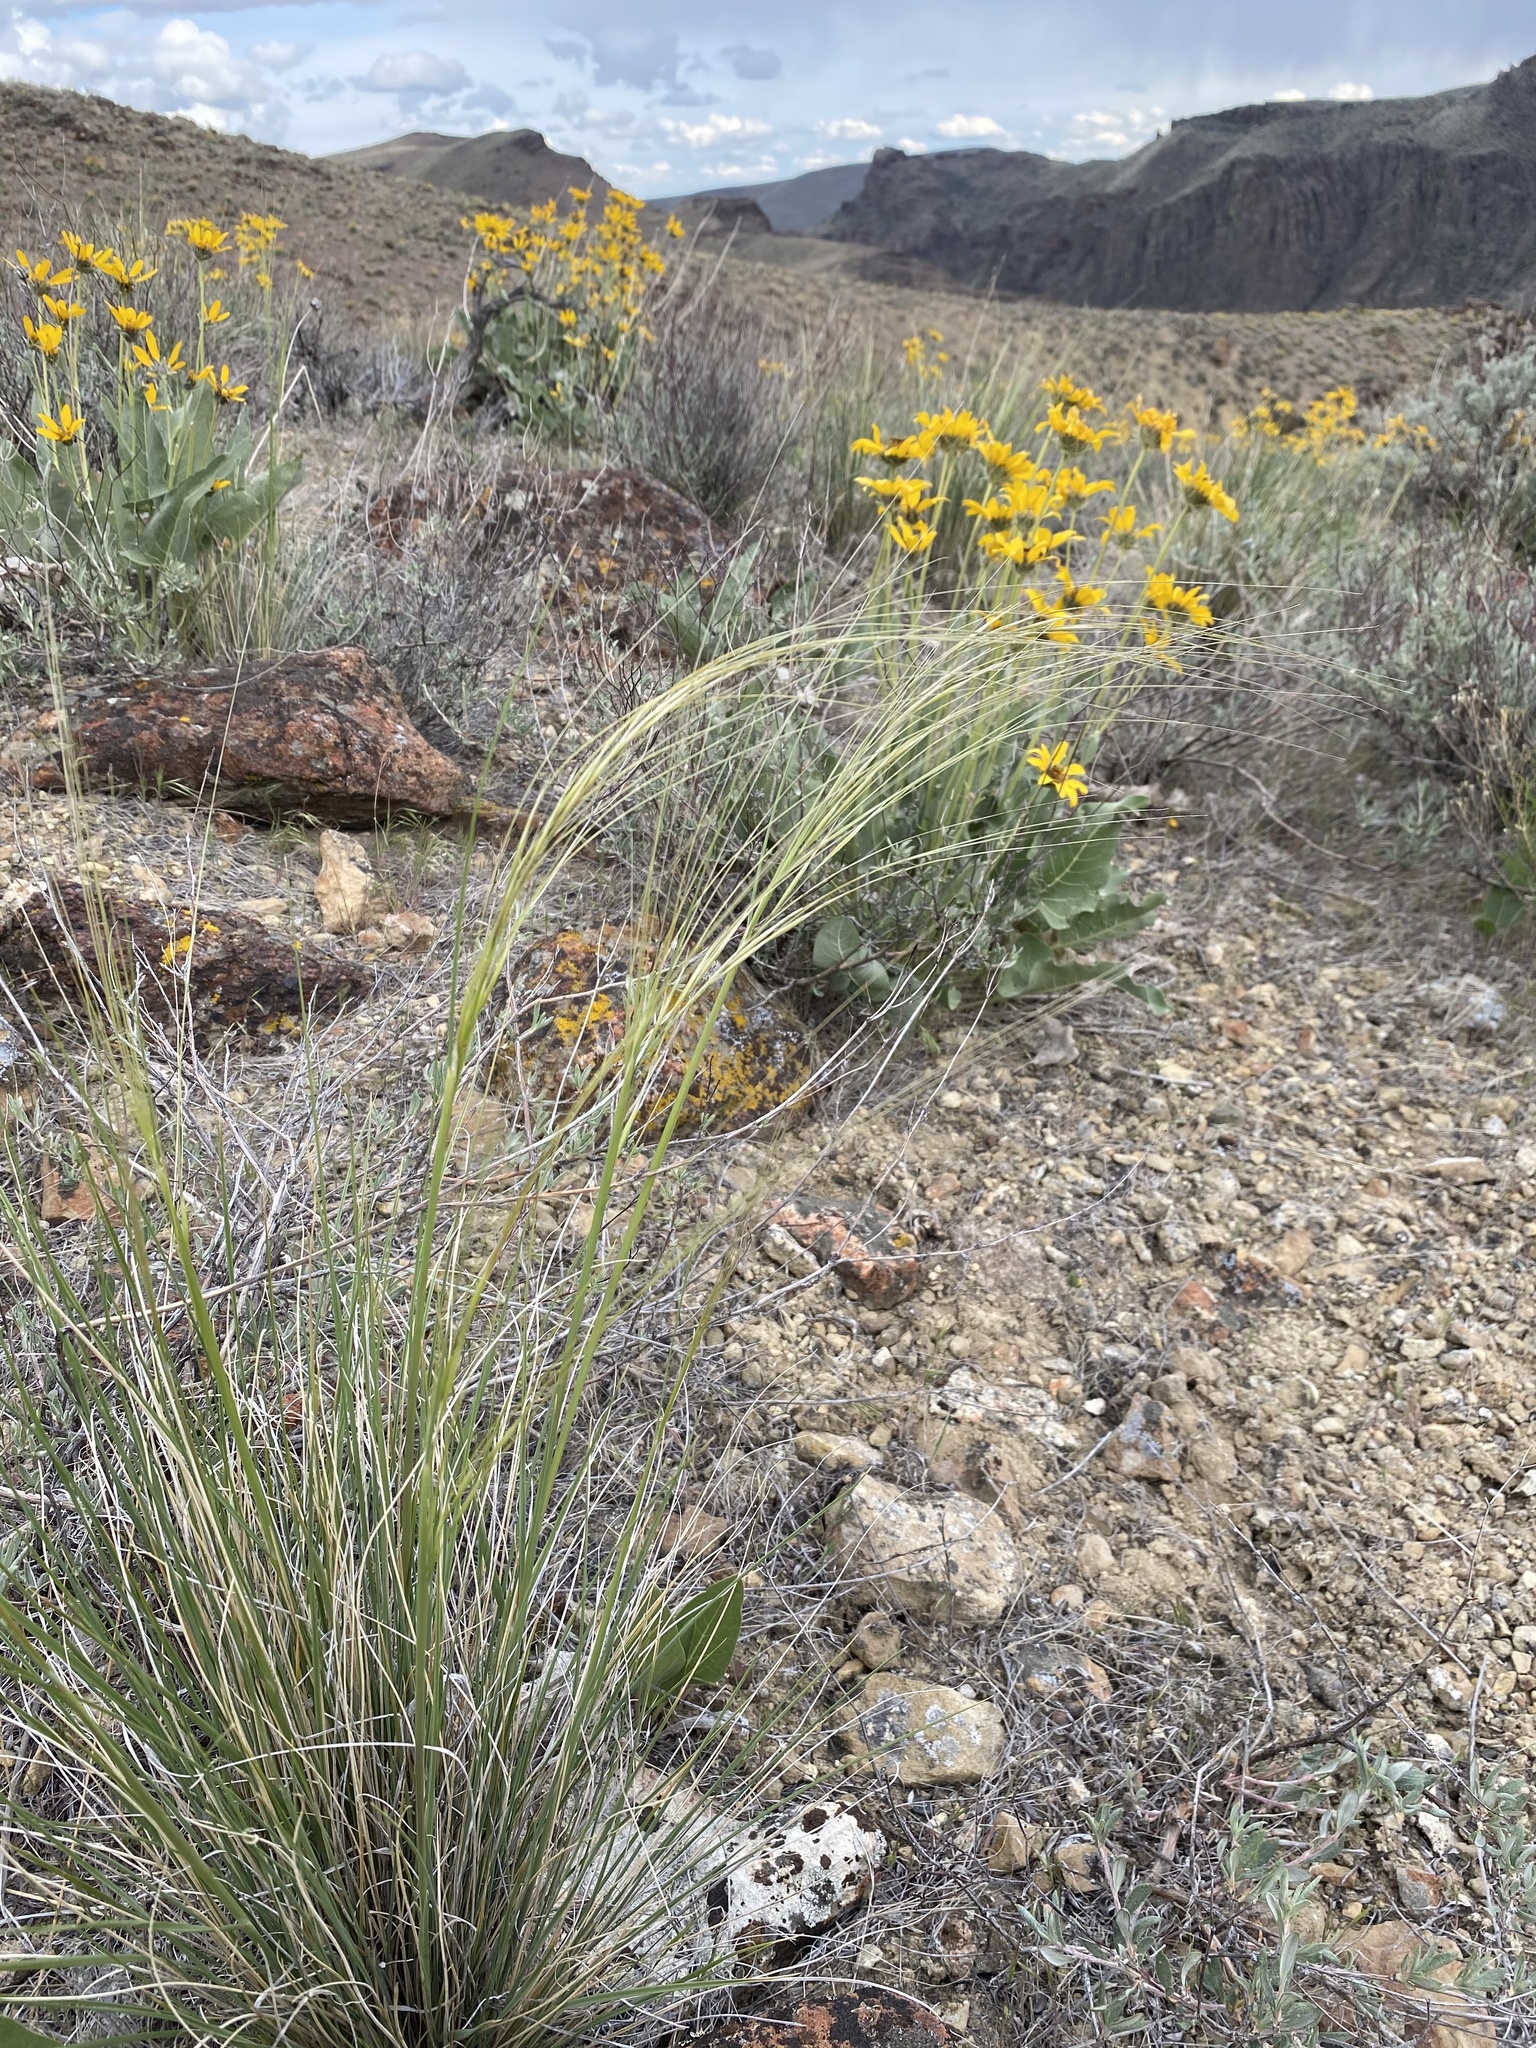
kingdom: Plantae
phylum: Tracheophyta
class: Liliopsida
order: Poales
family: Poaceae
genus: Hesperostipa
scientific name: Hesperostipa comata
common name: Needle-and-thread grass
